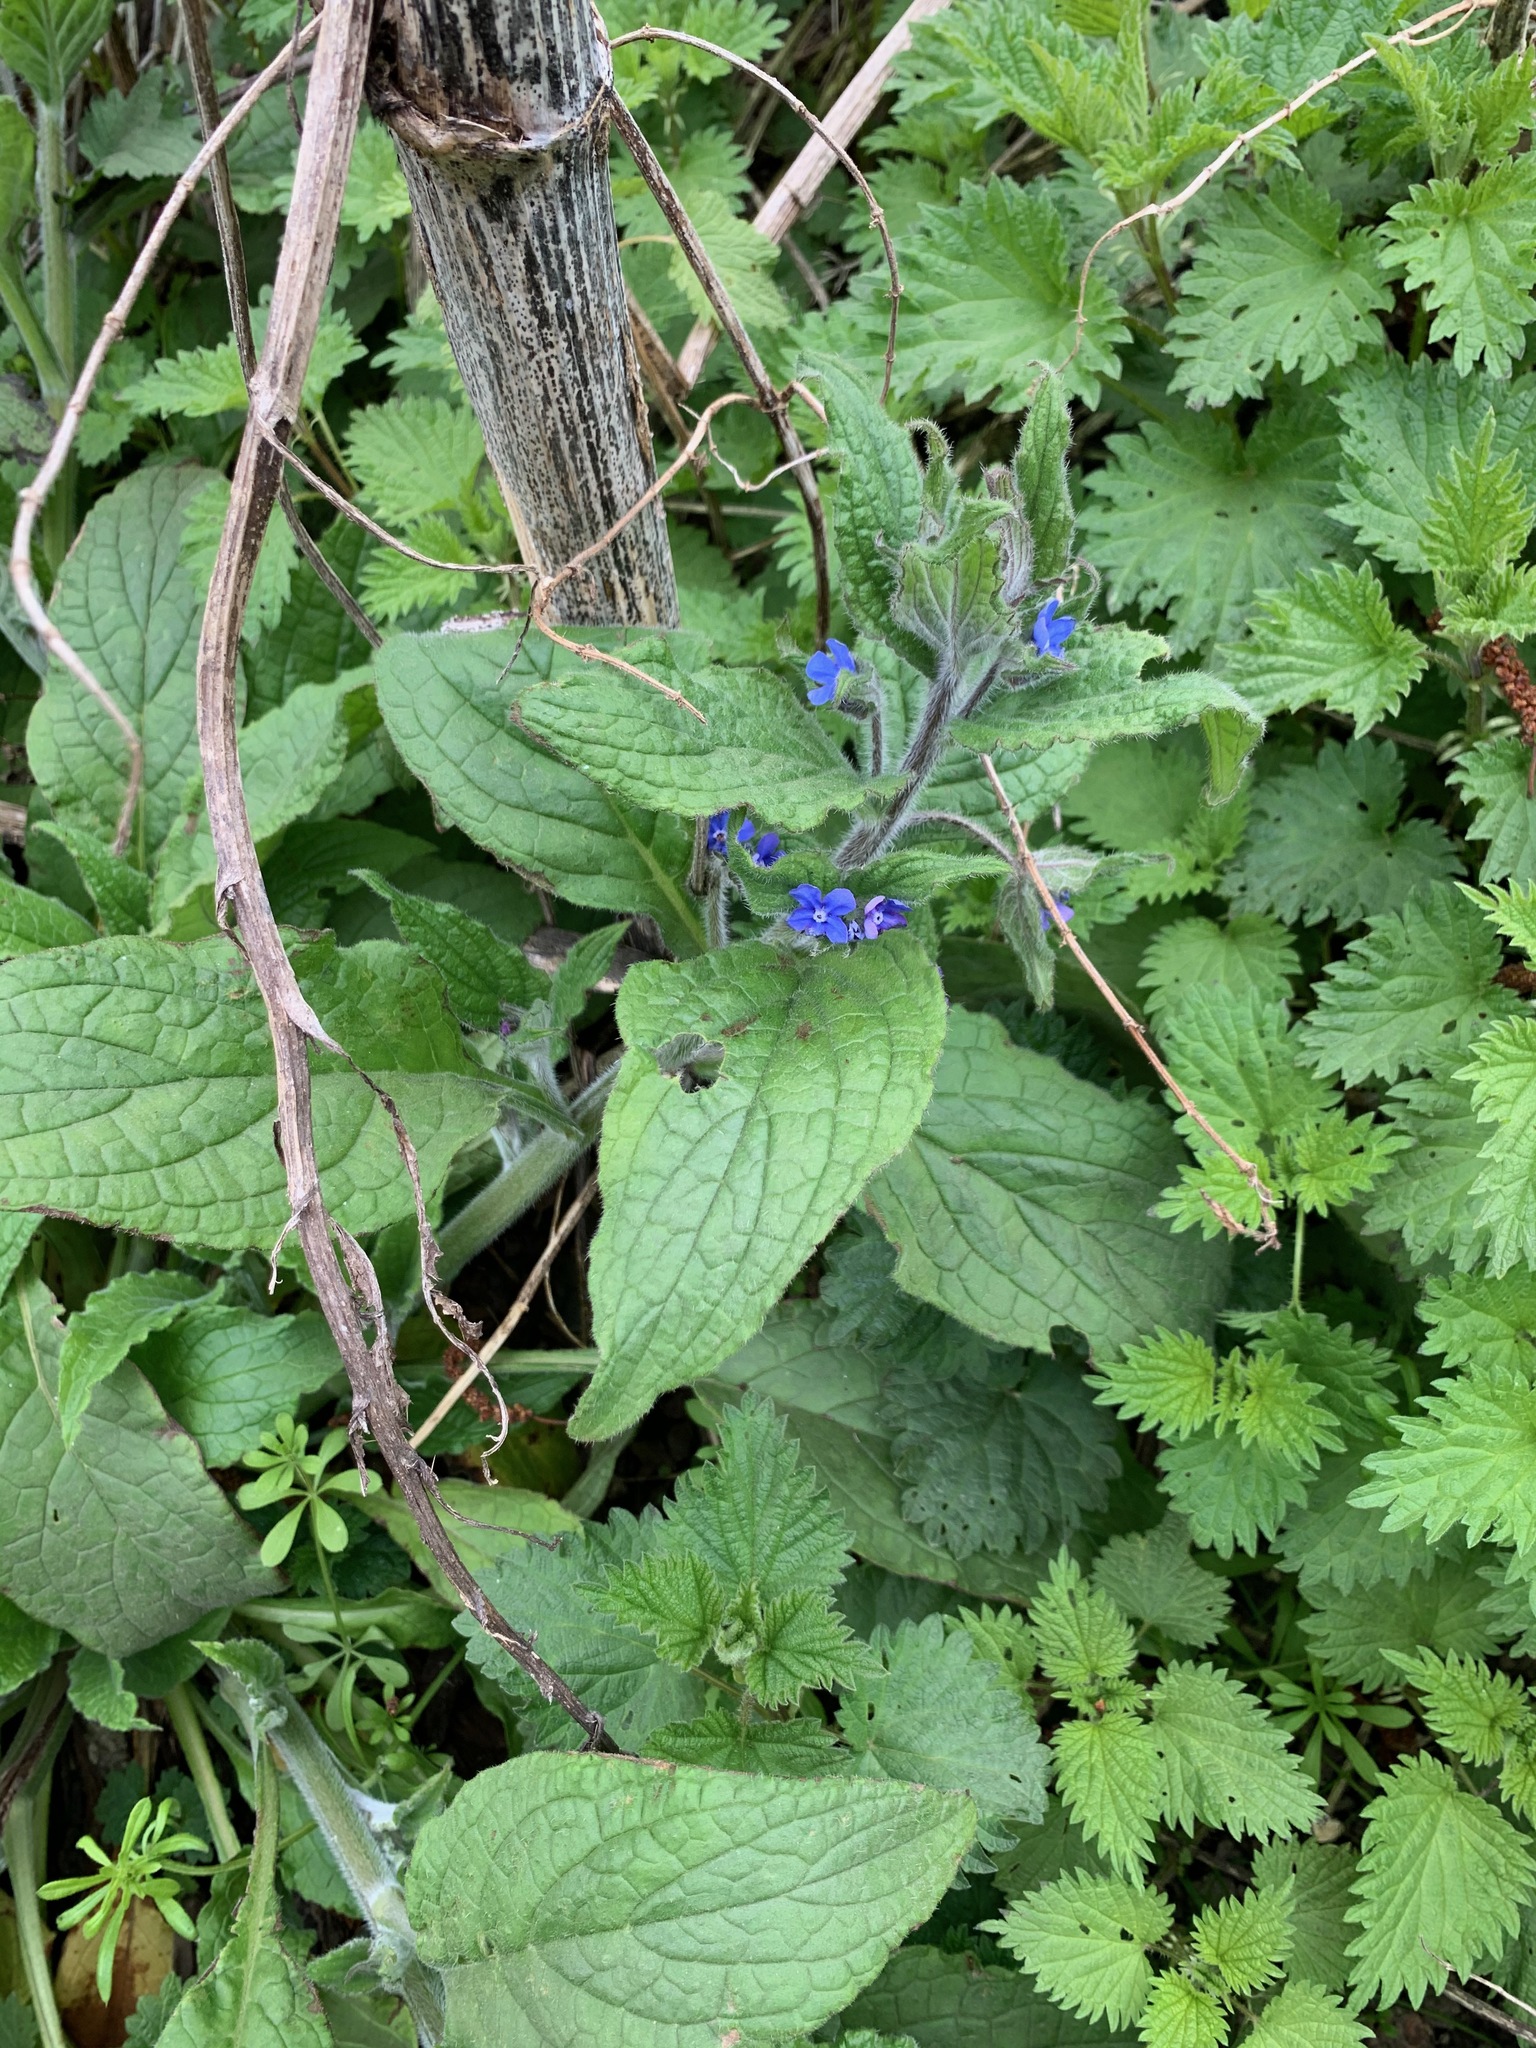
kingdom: Plantae
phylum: Tracheophyta
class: Magnoliopsida
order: Boraginales
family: Boraginaceae
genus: Pentaglottis
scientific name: Pentaglottis sempervirens
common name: Green alkanet
